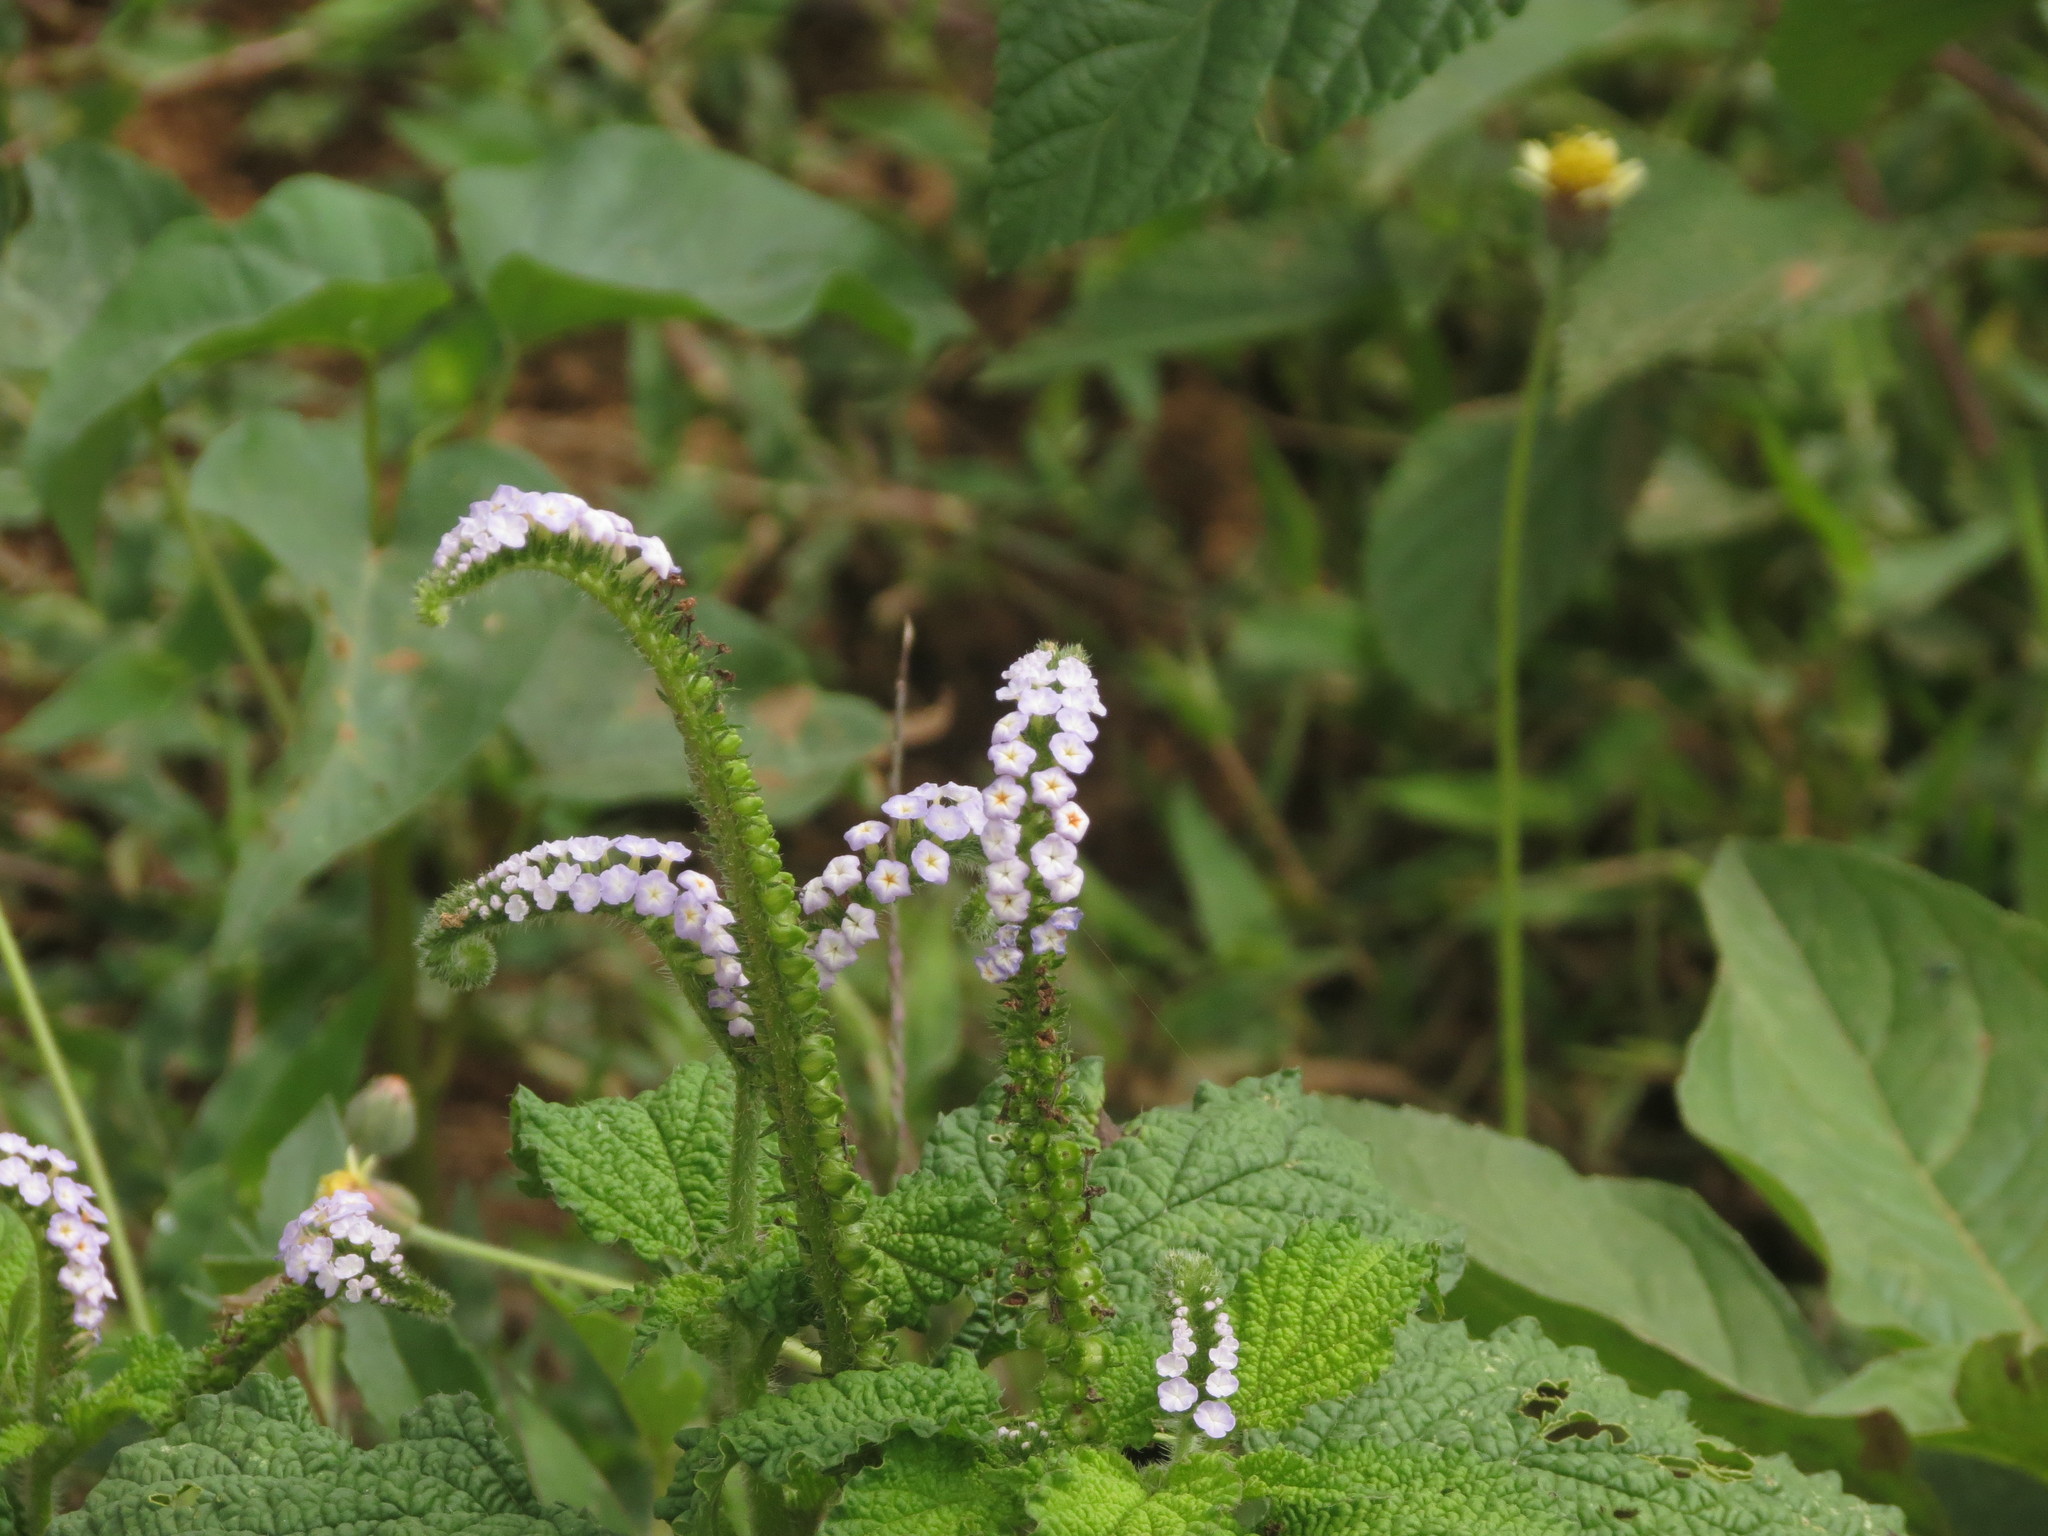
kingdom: Plantae
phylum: Tracheophyta
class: Magnoliopsida
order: Boraginales
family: Heliotropiaceae
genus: Heliotropium
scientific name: Heliotropium indicum
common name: Indian heliotrope
